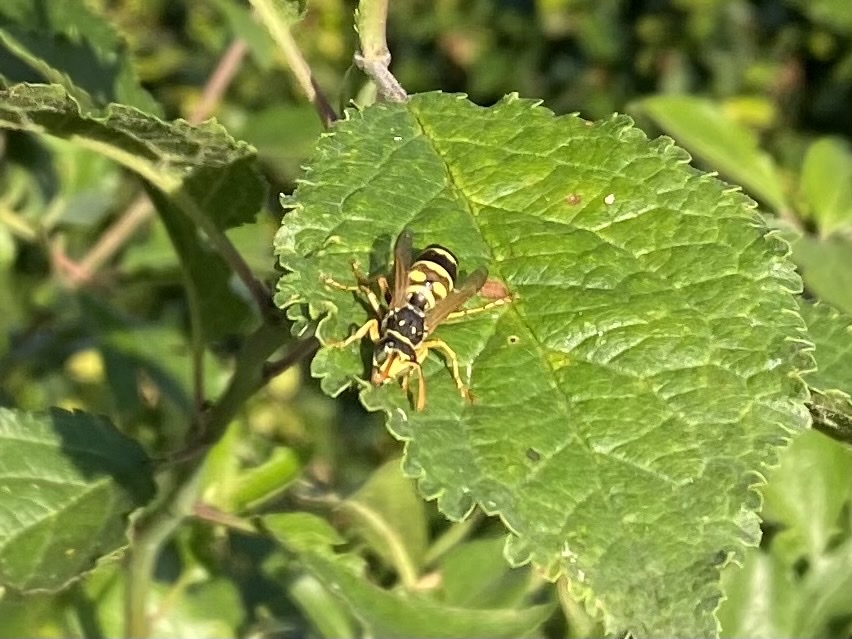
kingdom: Animalia
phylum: Arthropoda
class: Insecta
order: Hymenoptera
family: Eumenidae
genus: Polistes
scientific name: Polistes dominula
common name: Paper wasp
